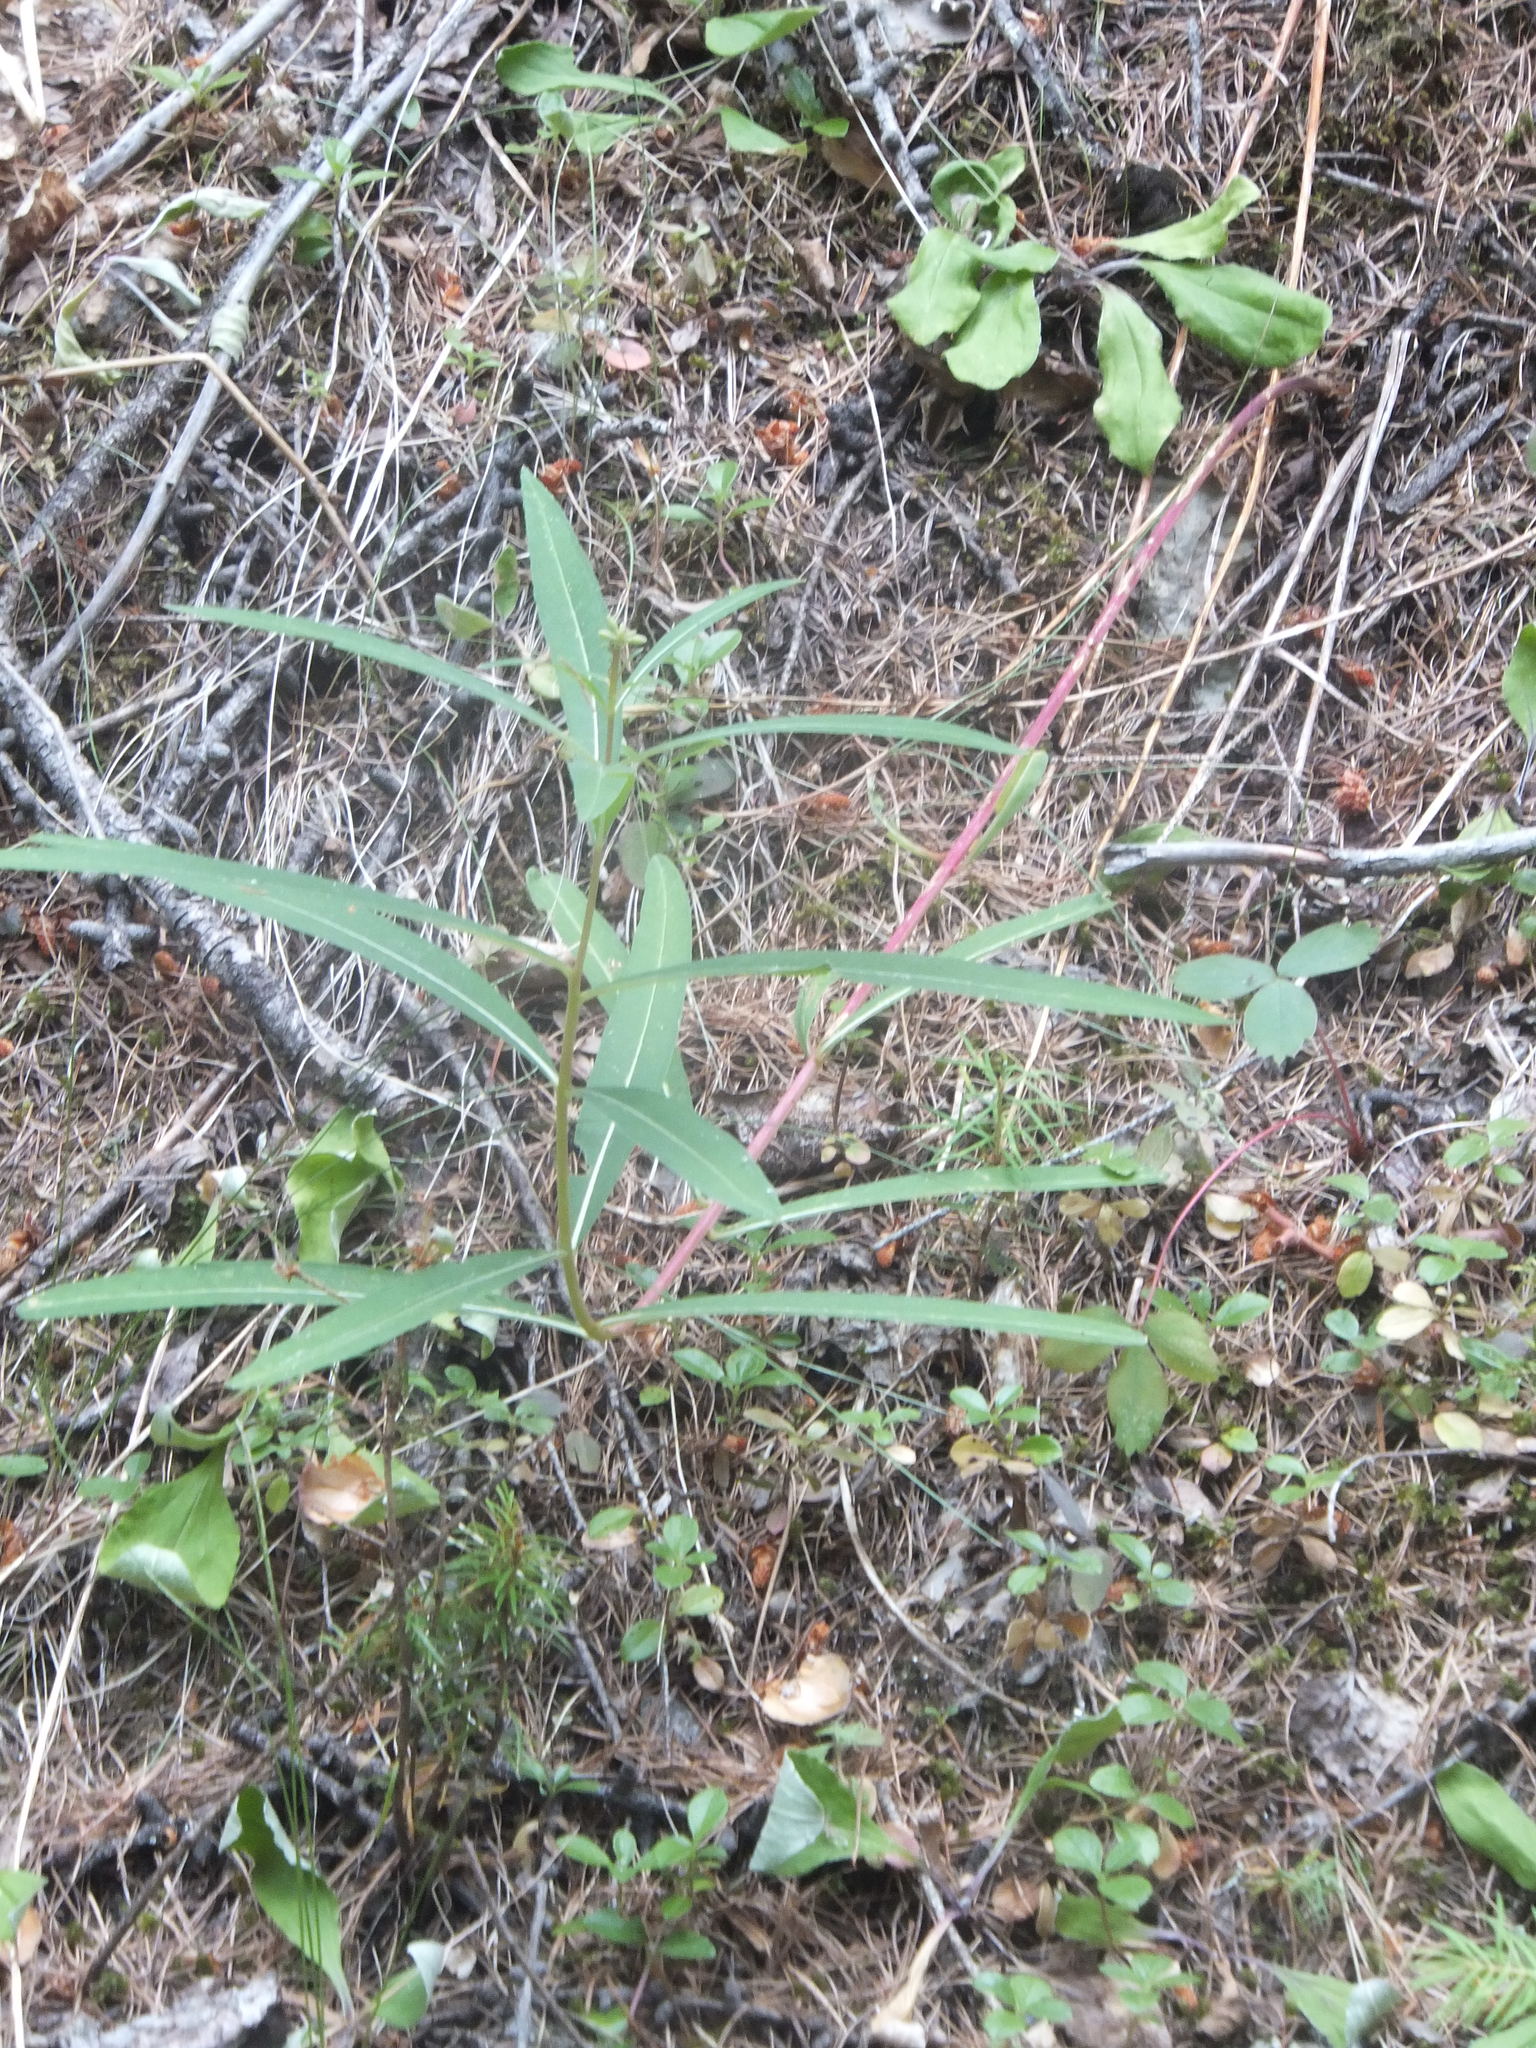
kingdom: Plantae
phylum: Tracheophyta
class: Magnoliopsida
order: Myrtales
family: Onagraceae
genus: Chamaenerion
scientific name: Chamaenerion angustifolium
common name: Fireweed
